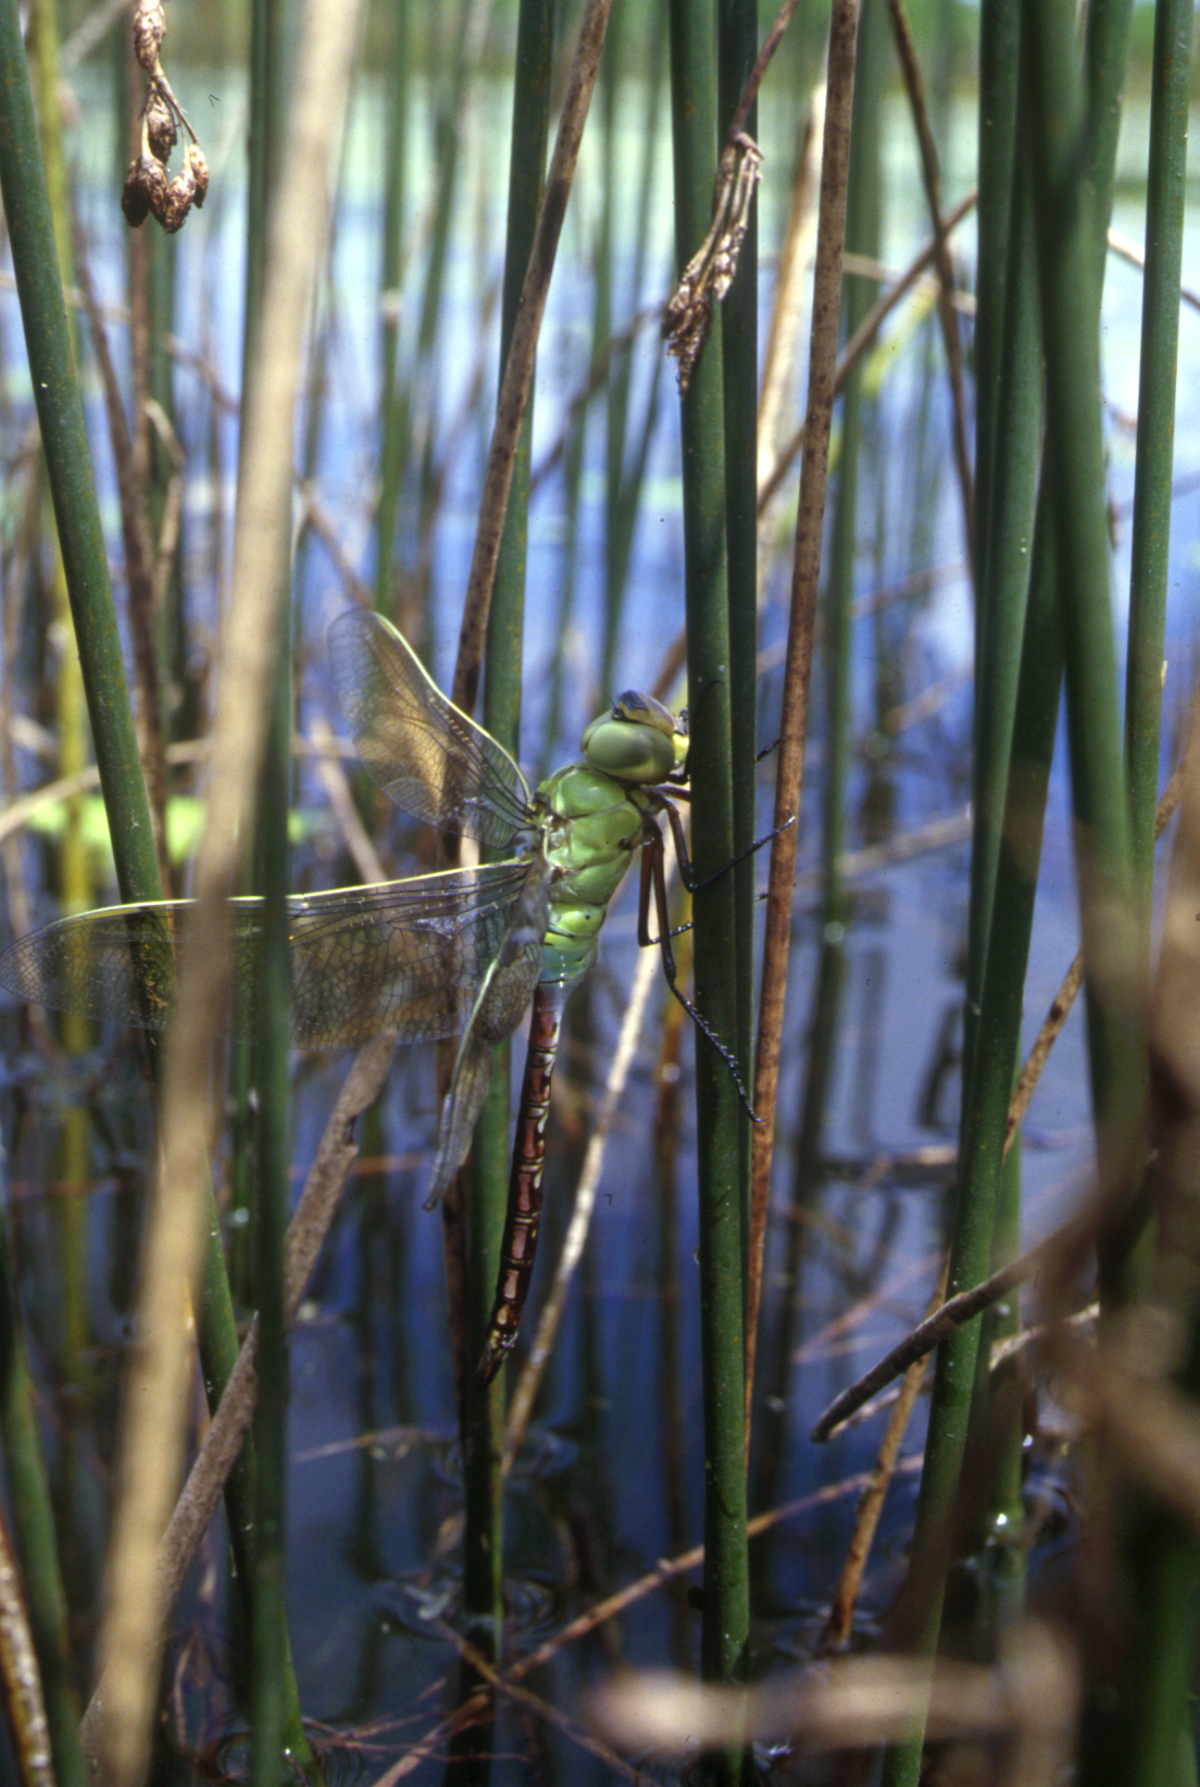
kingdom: Animalia
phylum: Arthropoda
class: Insecta
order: Odonata
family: Aeshnidae
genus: Anax
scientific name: Anax julius
